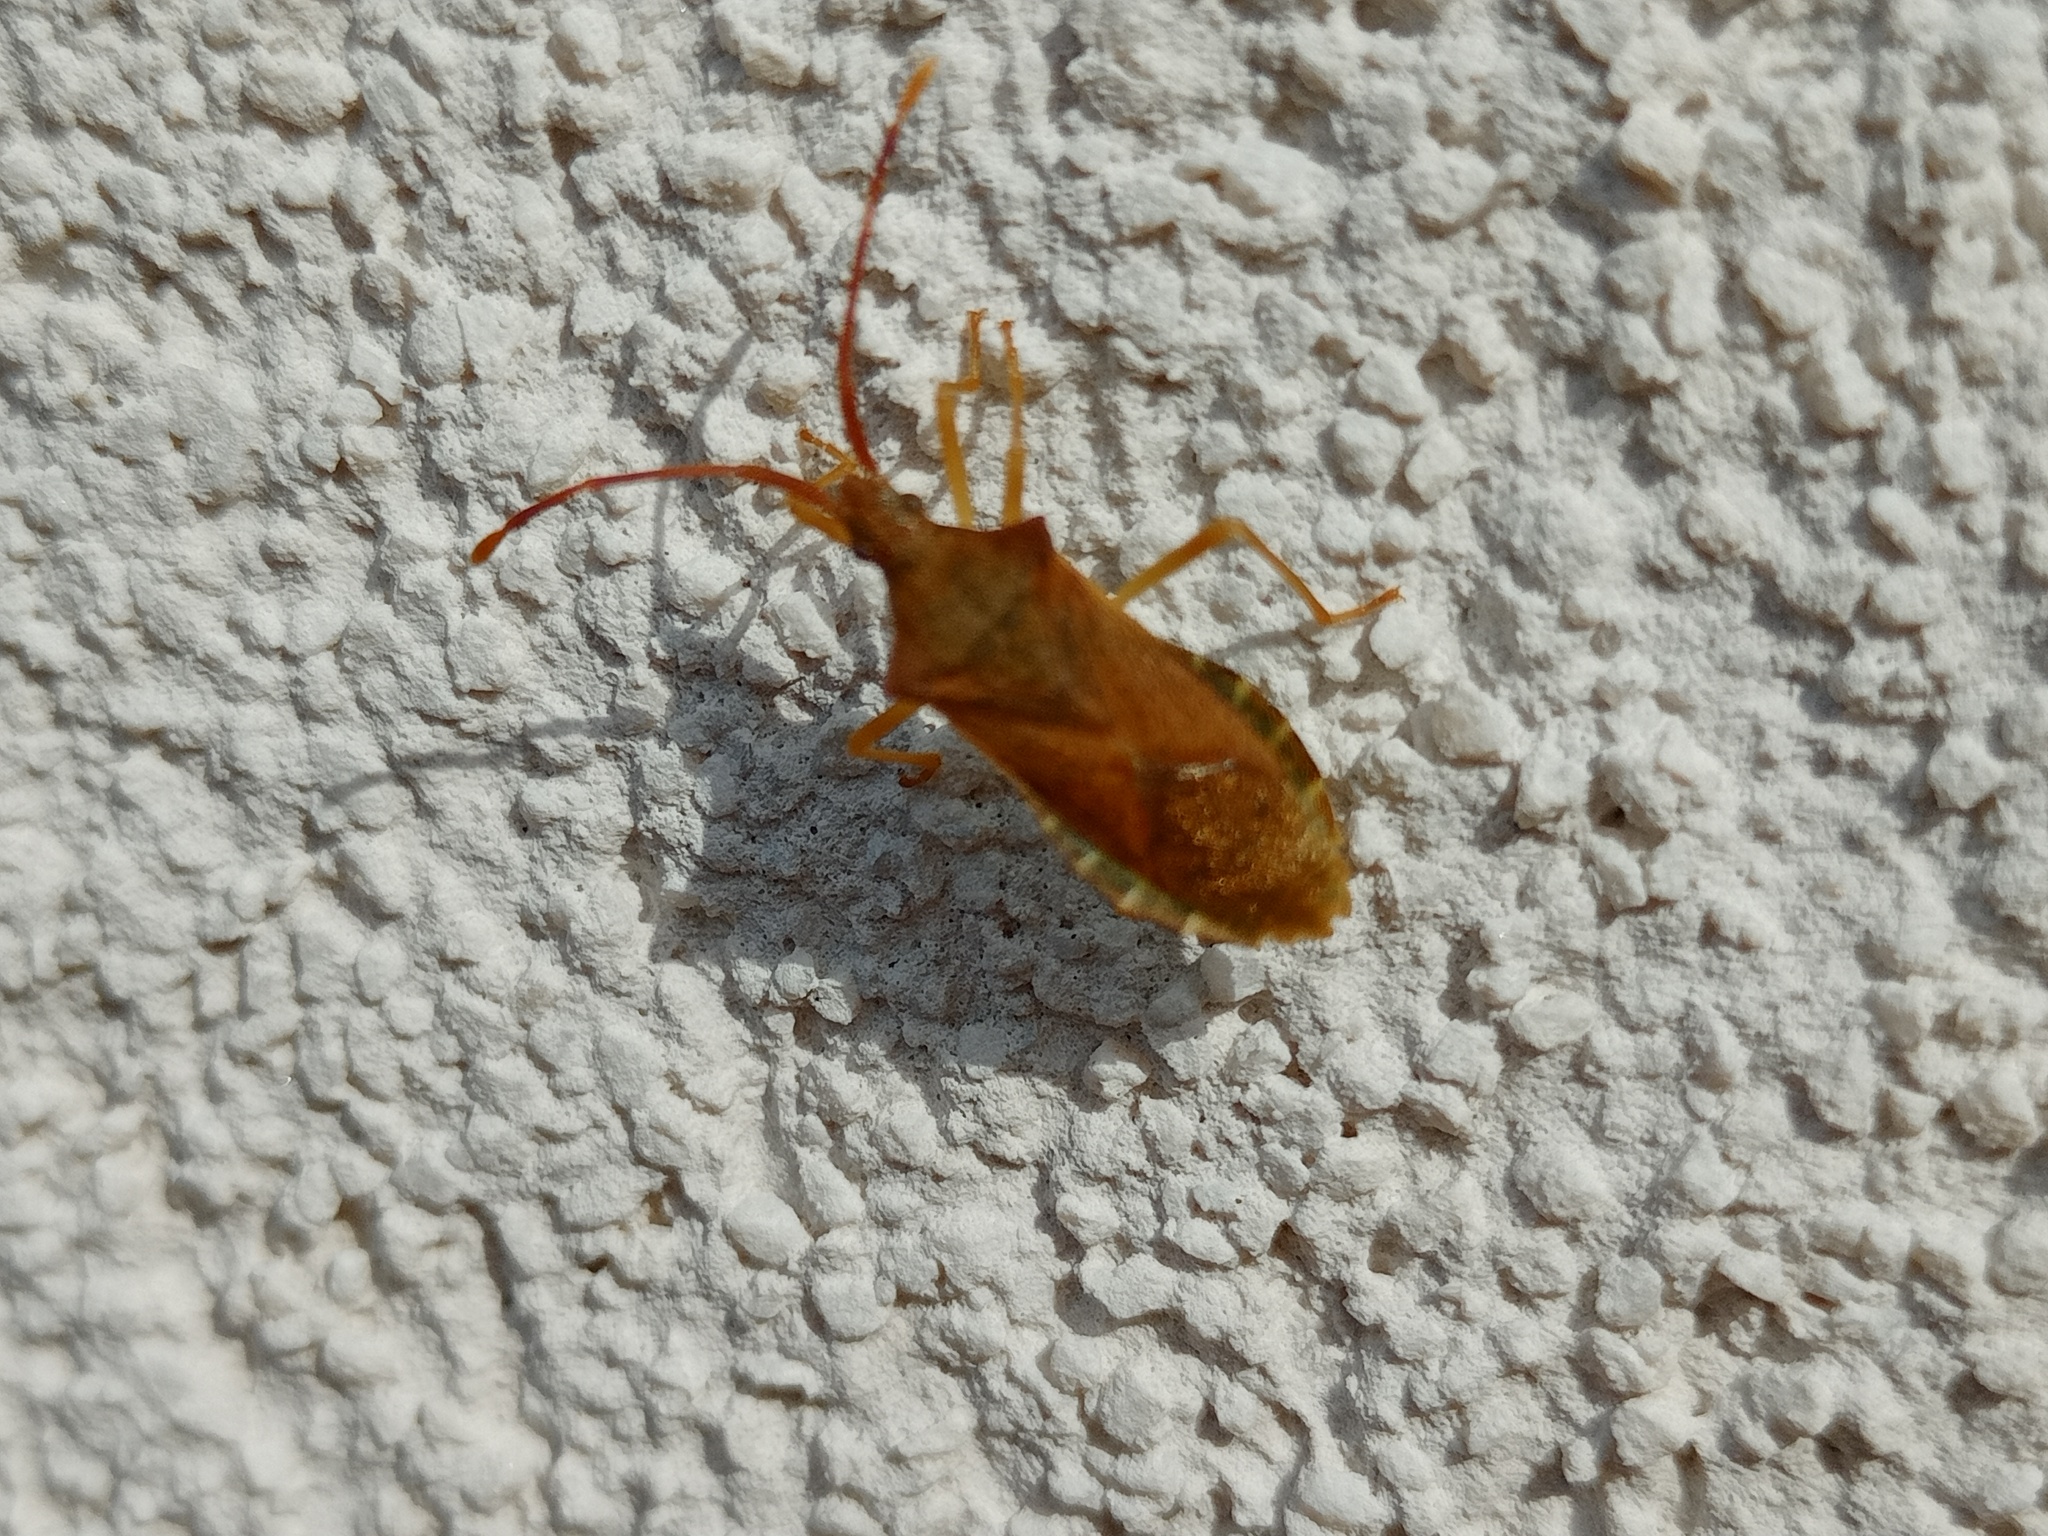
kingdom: Animalia
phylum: Arthropoda
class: Insecta
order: Hemiptera
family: Coreidae
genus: Gonocerus
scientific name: Gonocerus acuteangulatus
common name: Box bug
